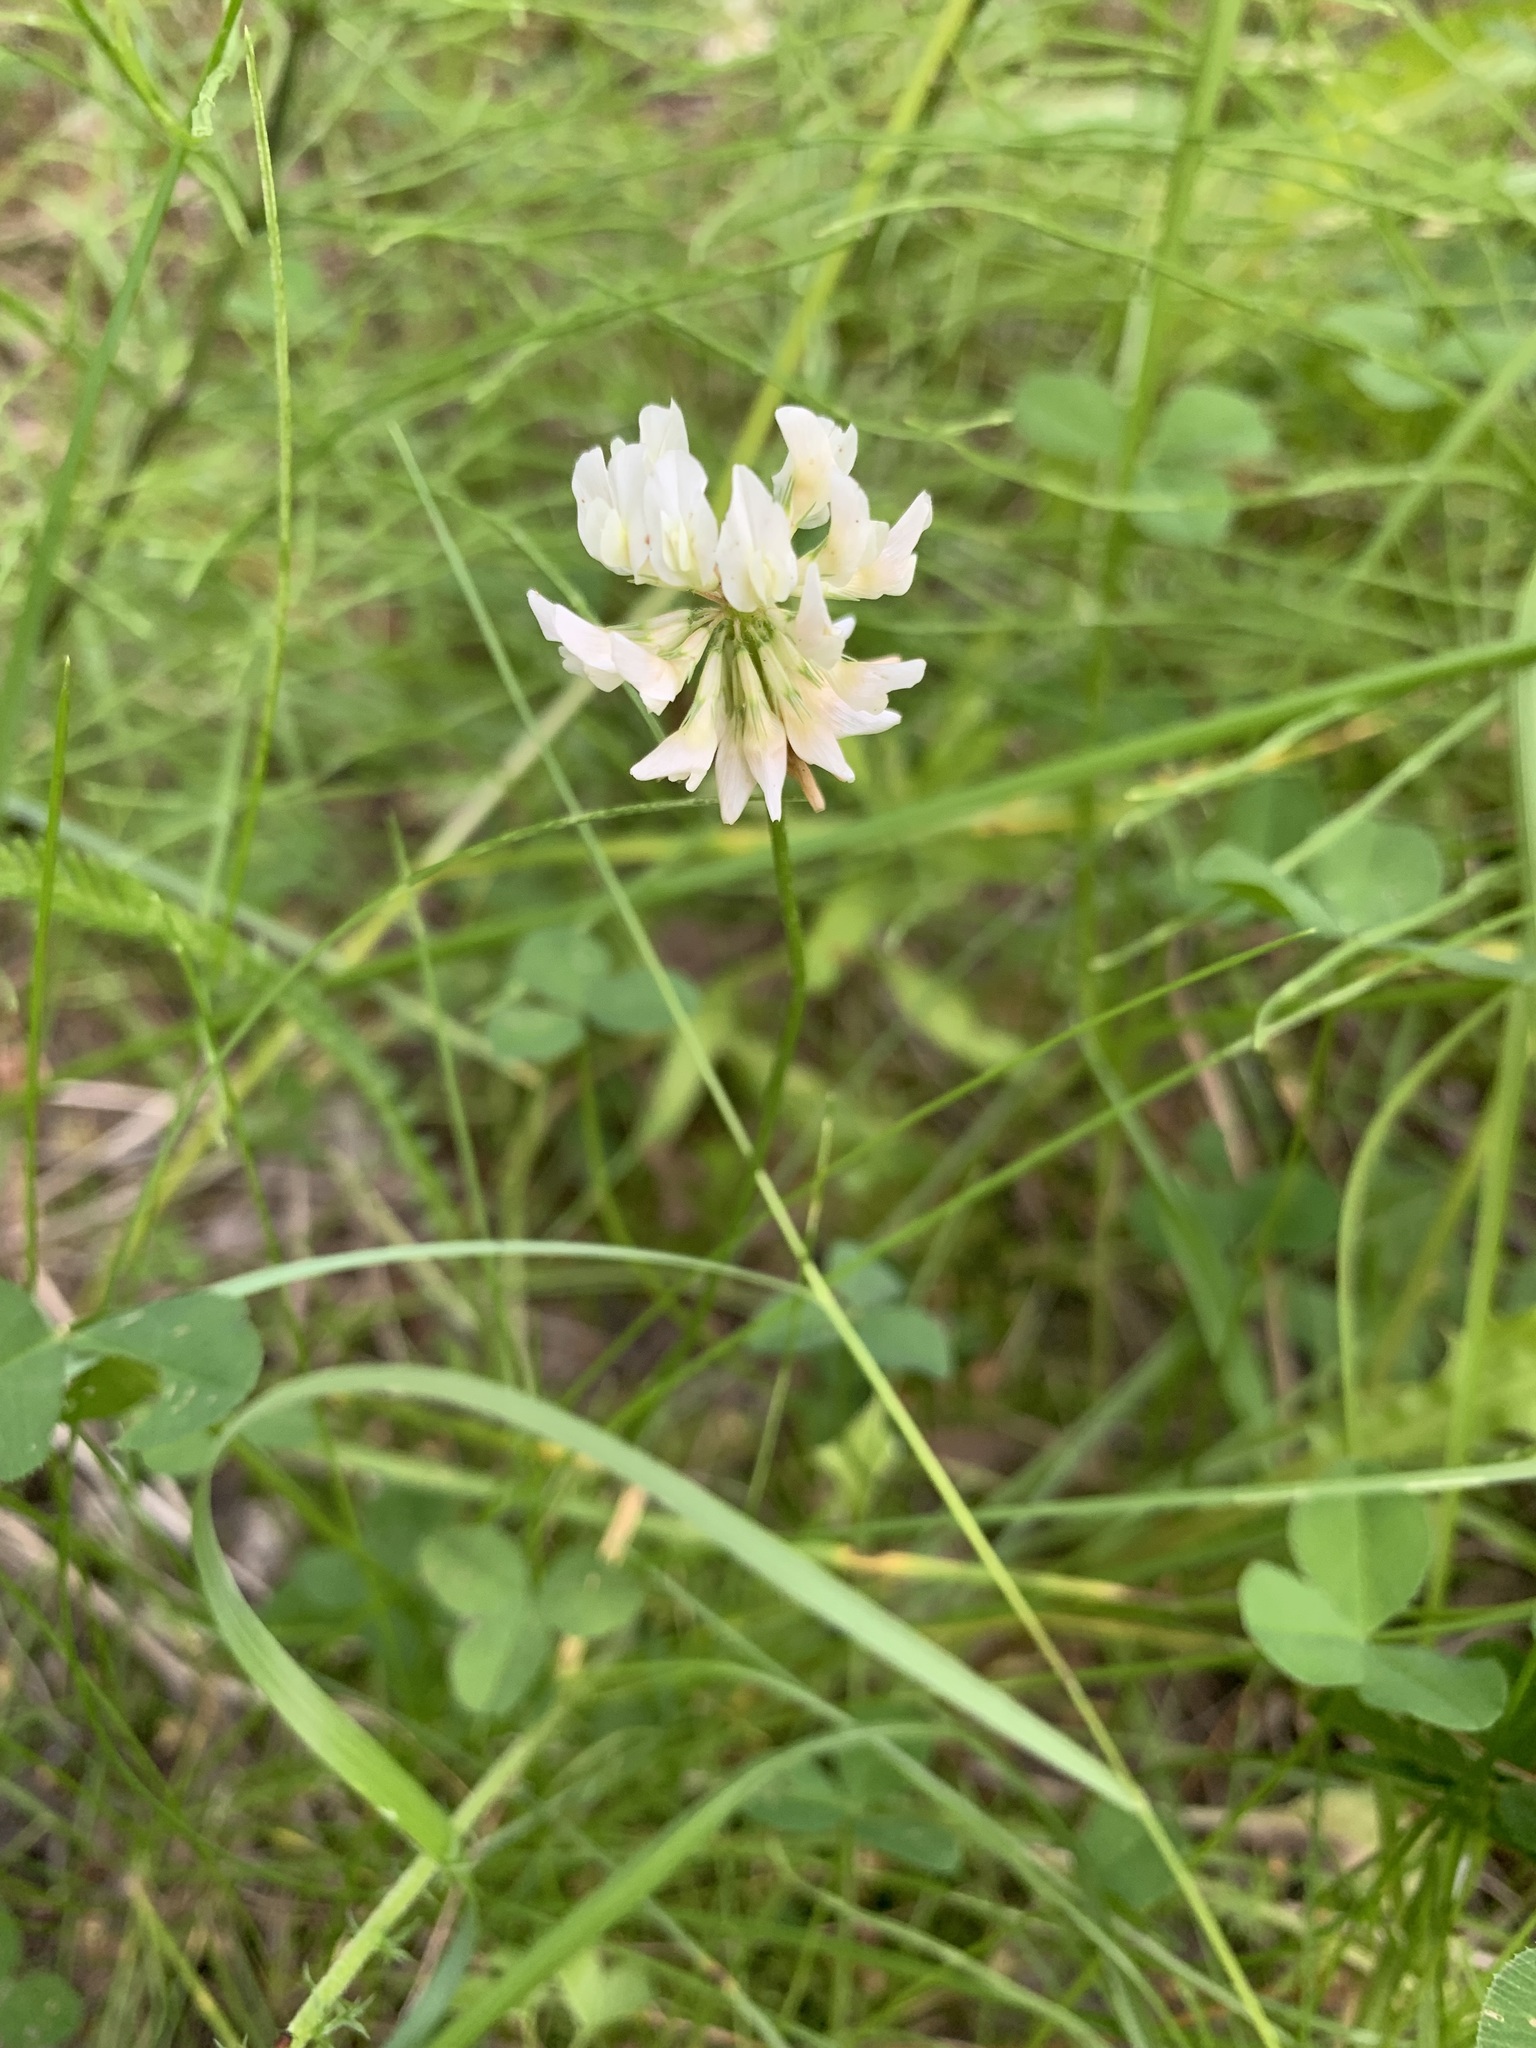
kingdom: Plantae
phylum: Tracheophyta
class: Magnoliopsida
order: Fabales
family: Fabaceae
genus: Trifolium
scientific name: Trifolium repens
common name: White clover
